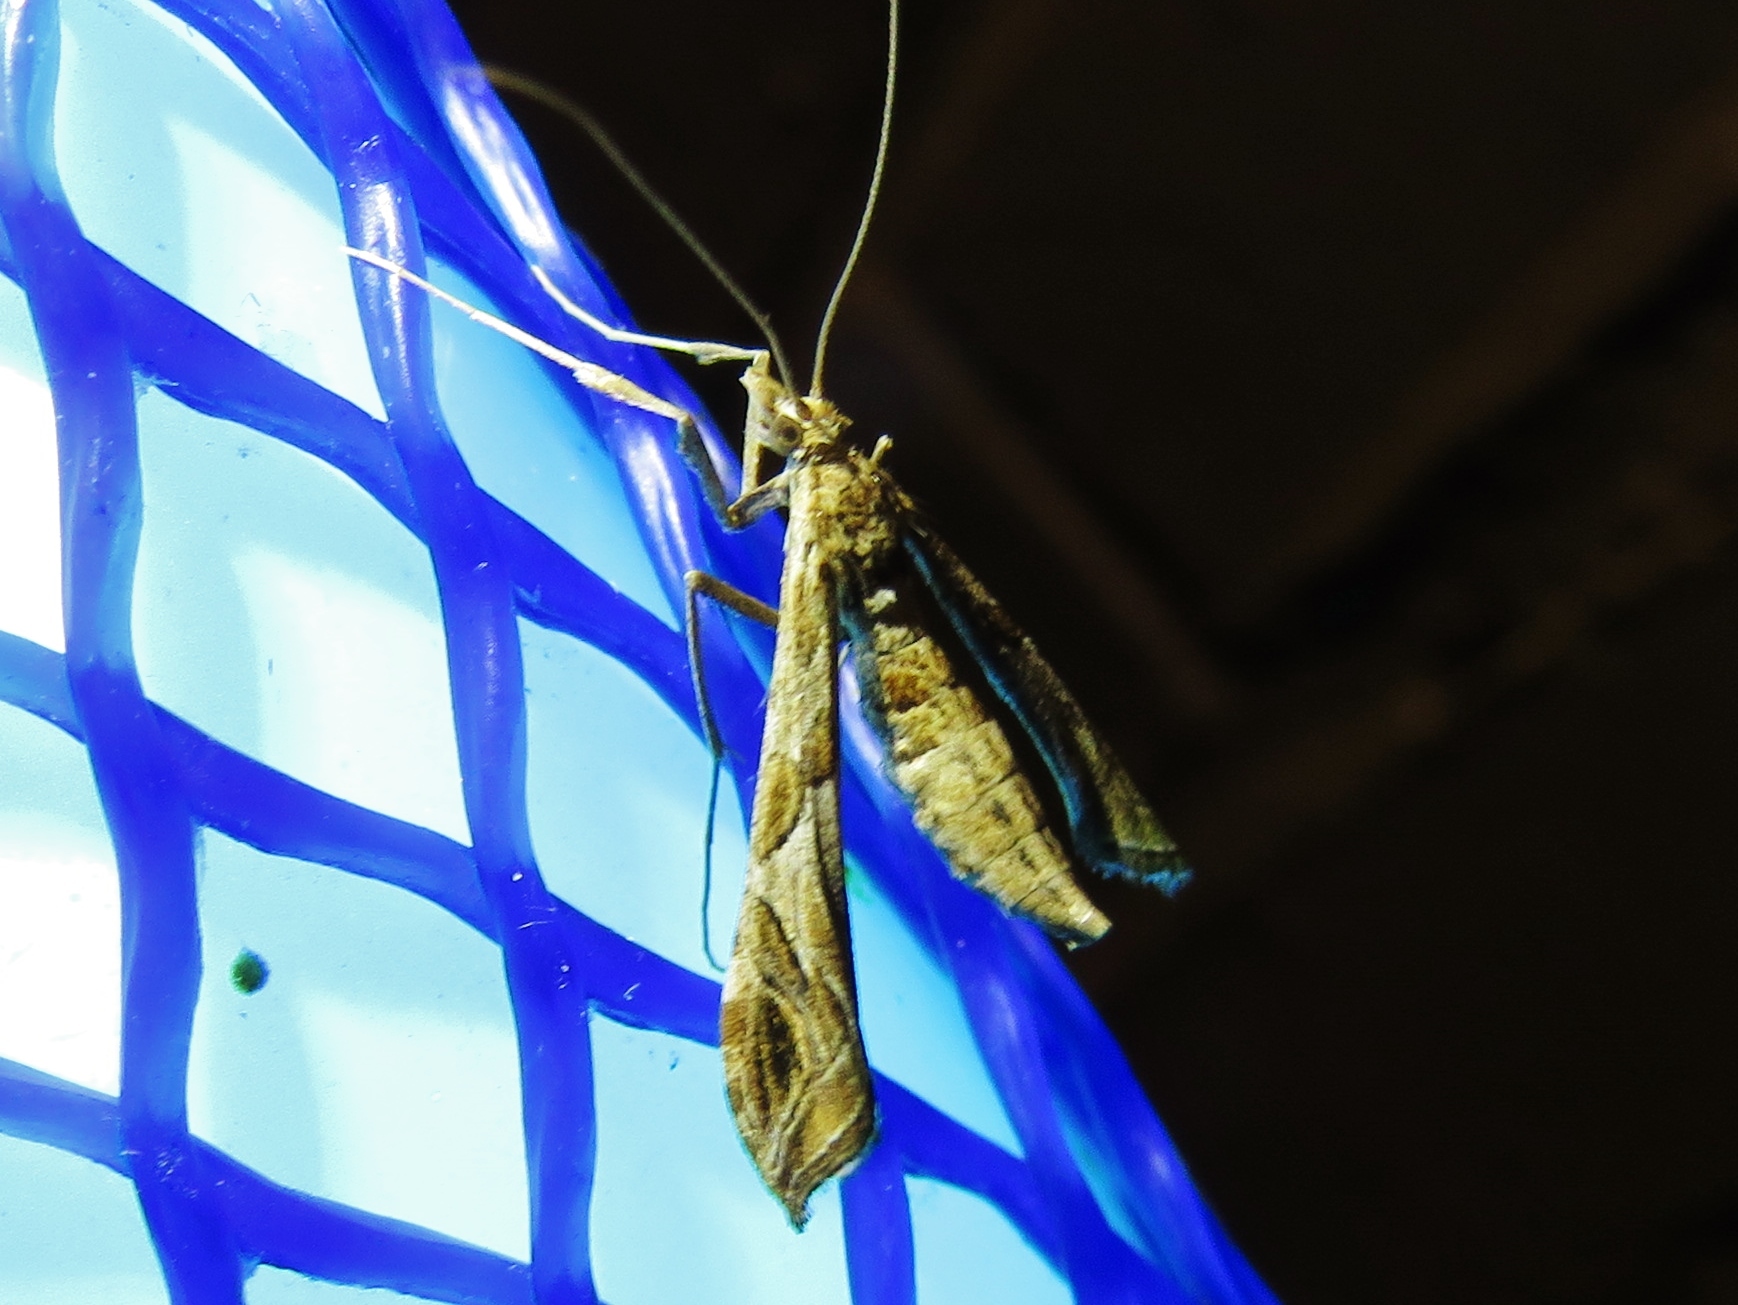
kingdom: Animalia
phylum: Arthropoda
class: Insecta
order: Lepidoptera
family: Crambidae
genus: Lineodes
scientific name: Lineodes interrupta
